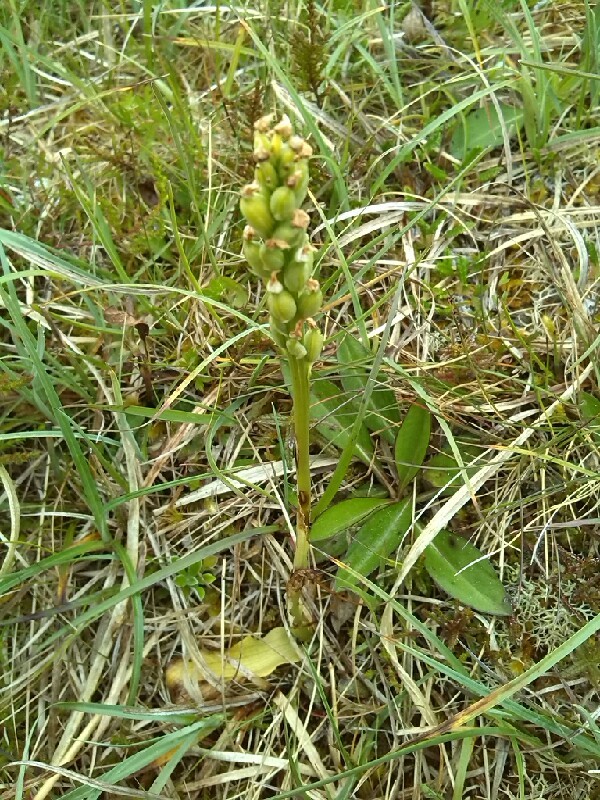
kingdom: Plantae
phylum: Tracheophyta
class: Liliopsida
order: Asparagales
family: Orchidaceae
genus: Orchis
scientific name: Orchis mascula
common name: Early-purple orchid
